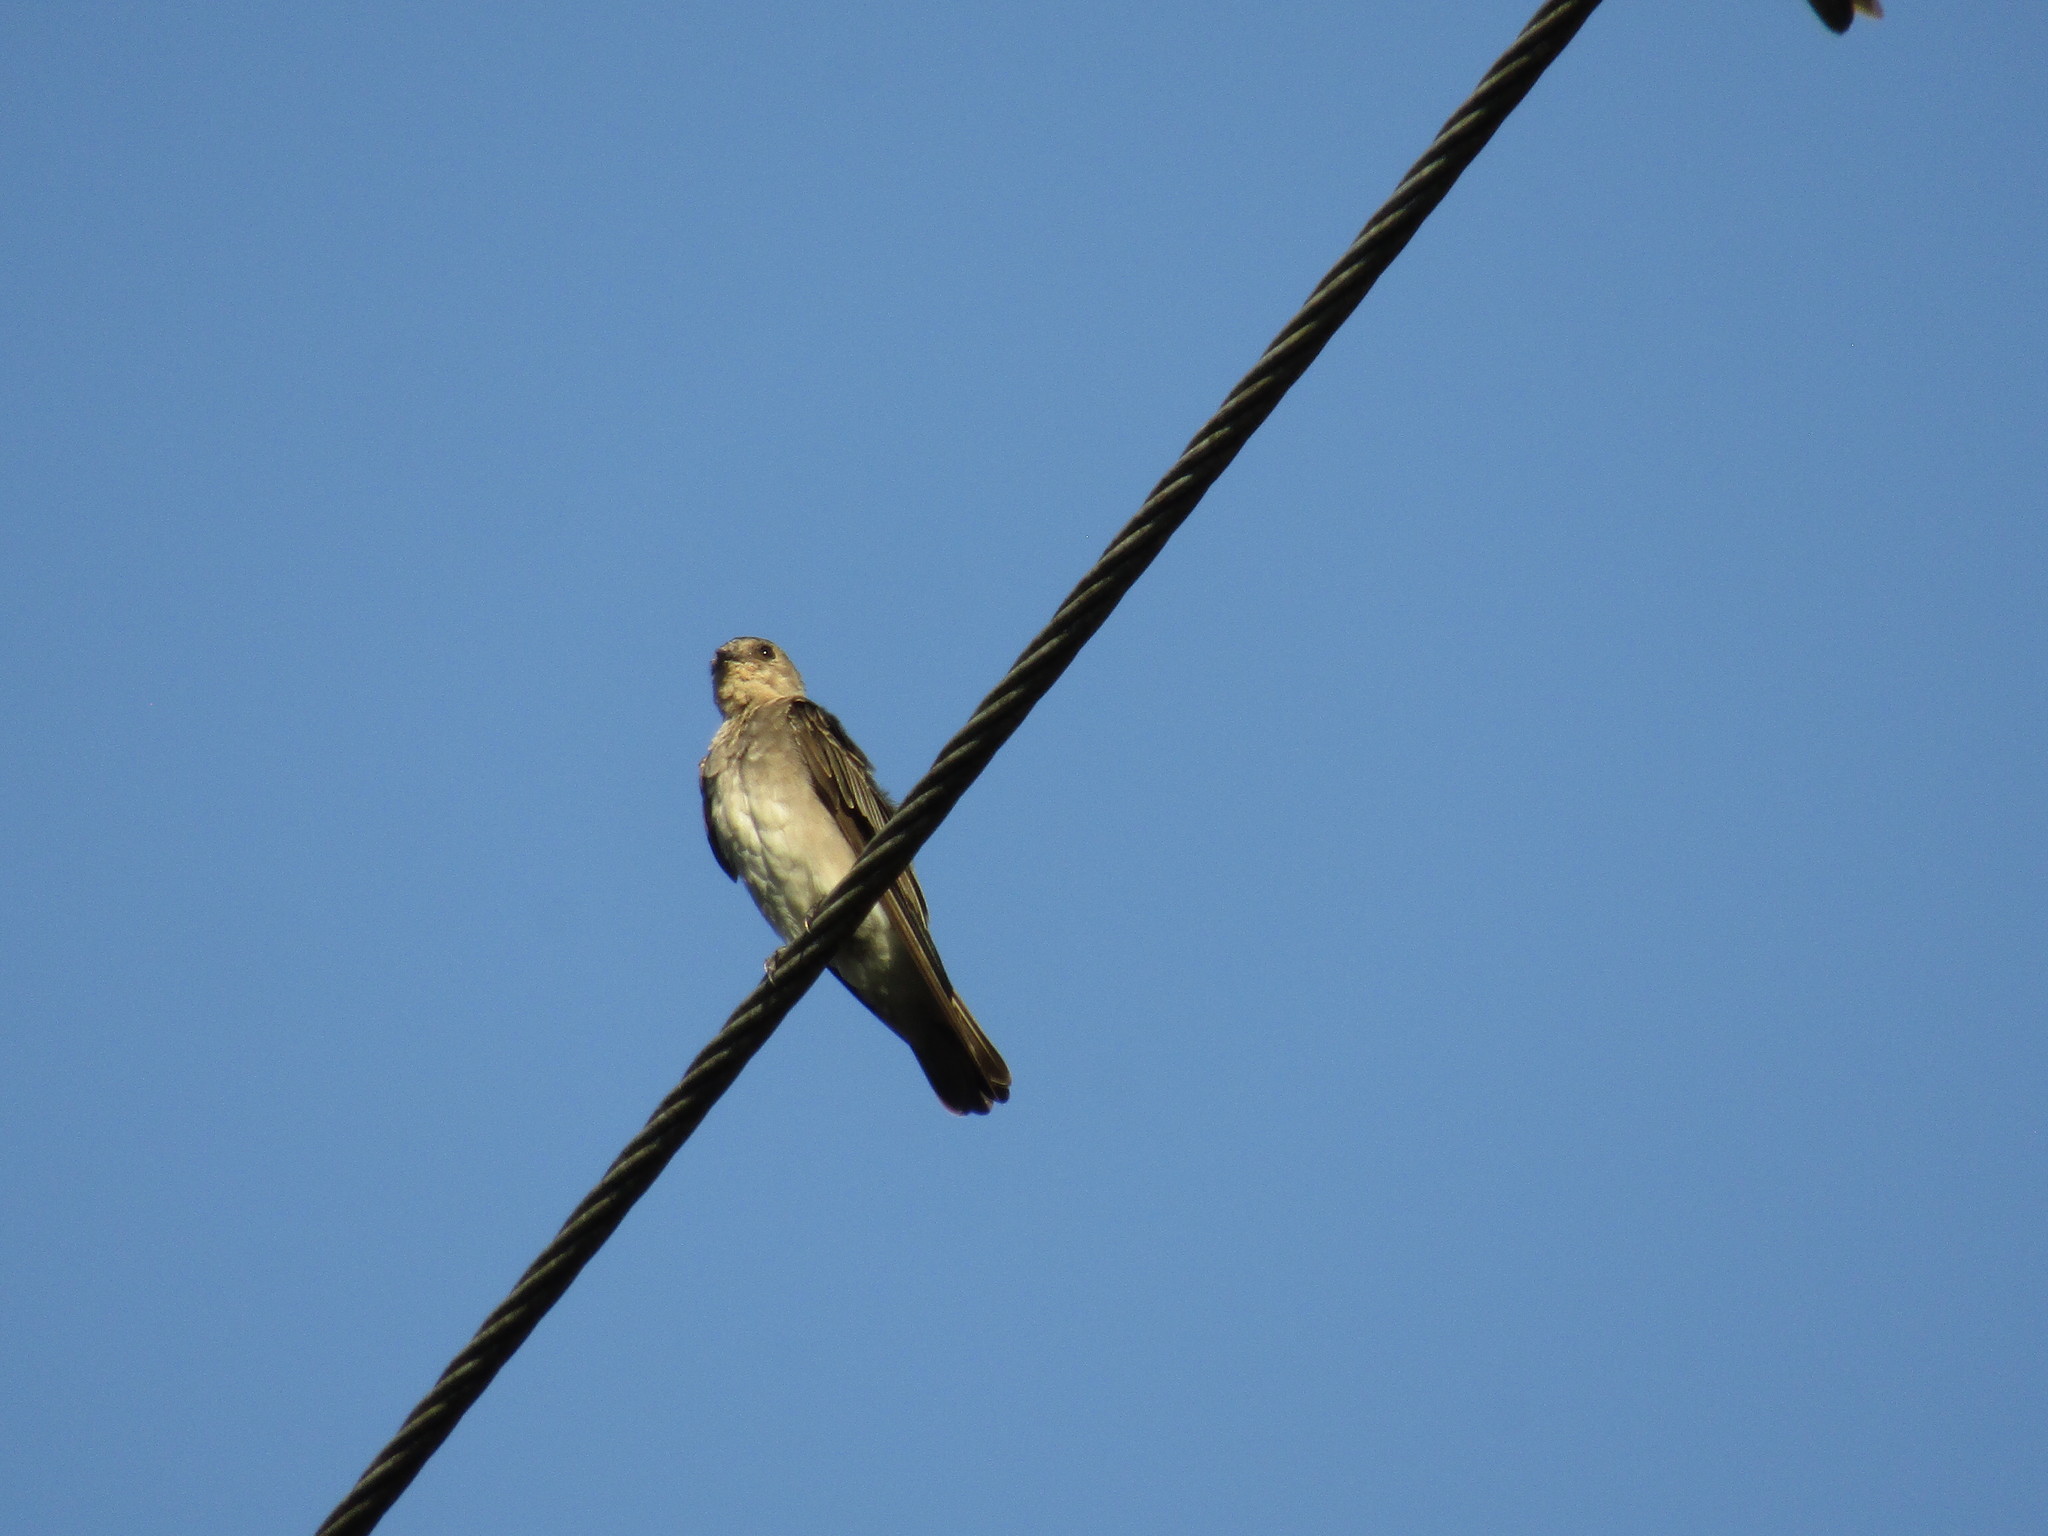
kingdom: Animalia
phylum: Chordata
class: Aves
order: Passeriformes
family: Hirundinidae
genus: Stelgidopteryx
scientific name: Stelgidopteryx serripennis
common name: Northern rough-winged swallow
